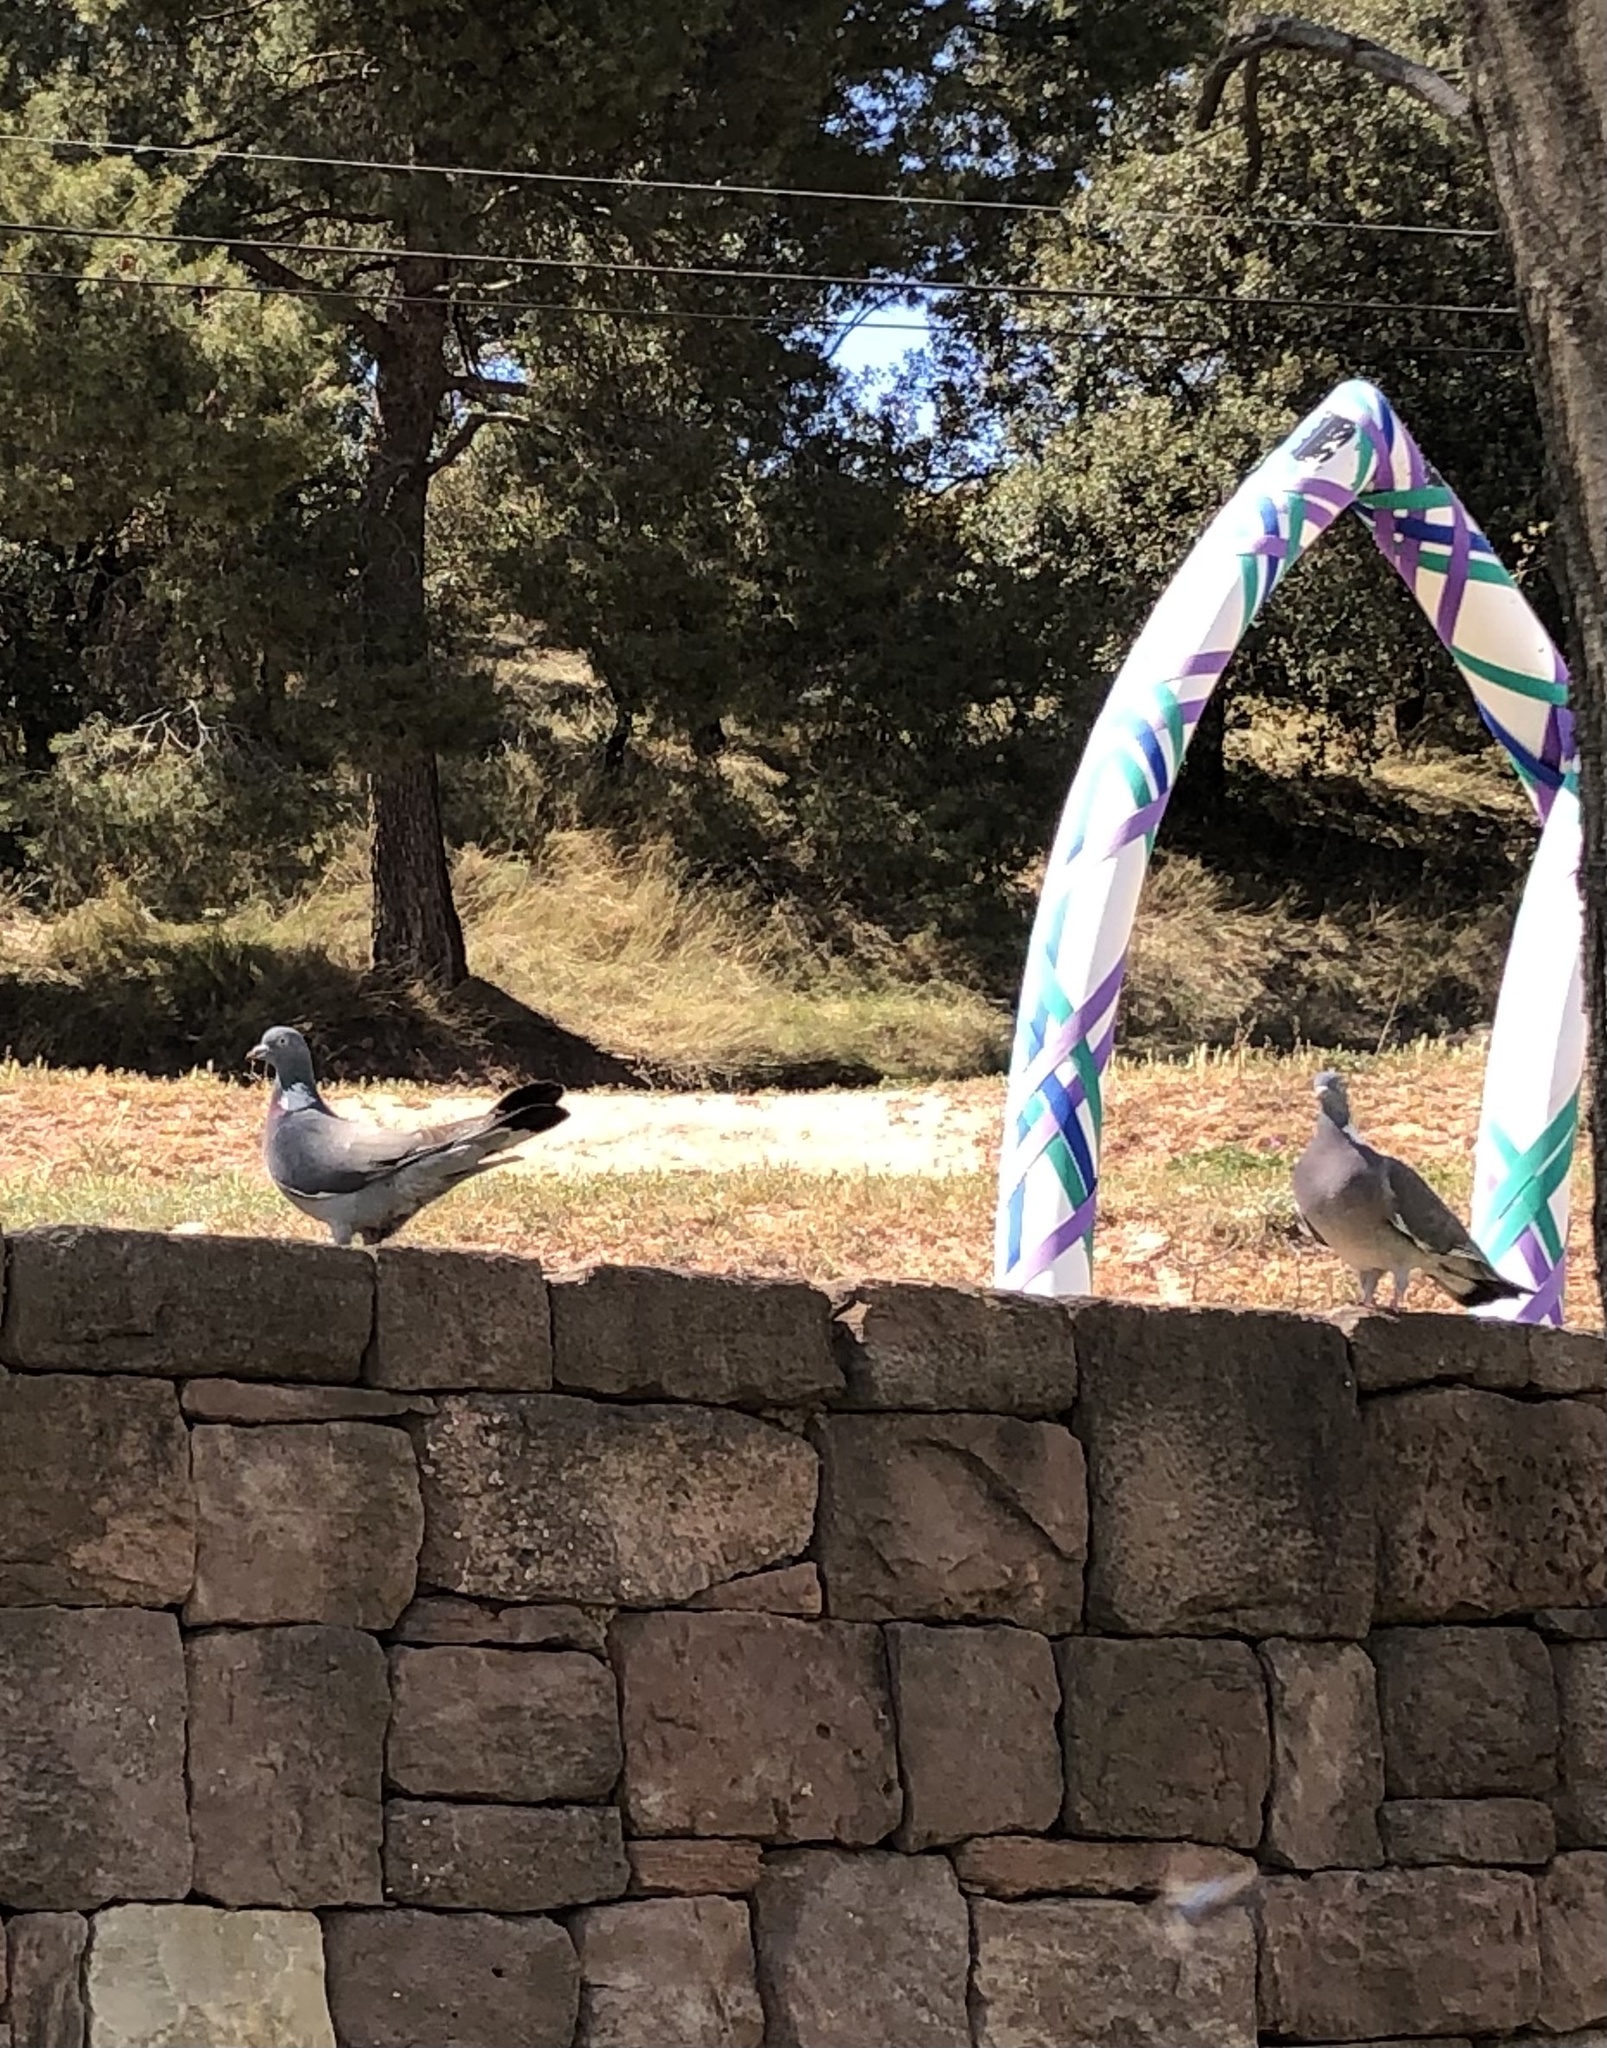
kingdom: Animalia
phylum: Chordata
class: Aves
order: Columbiformes
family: Columbidae
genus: Columba
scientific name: Columba palumbus
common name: Common wood pigeon
